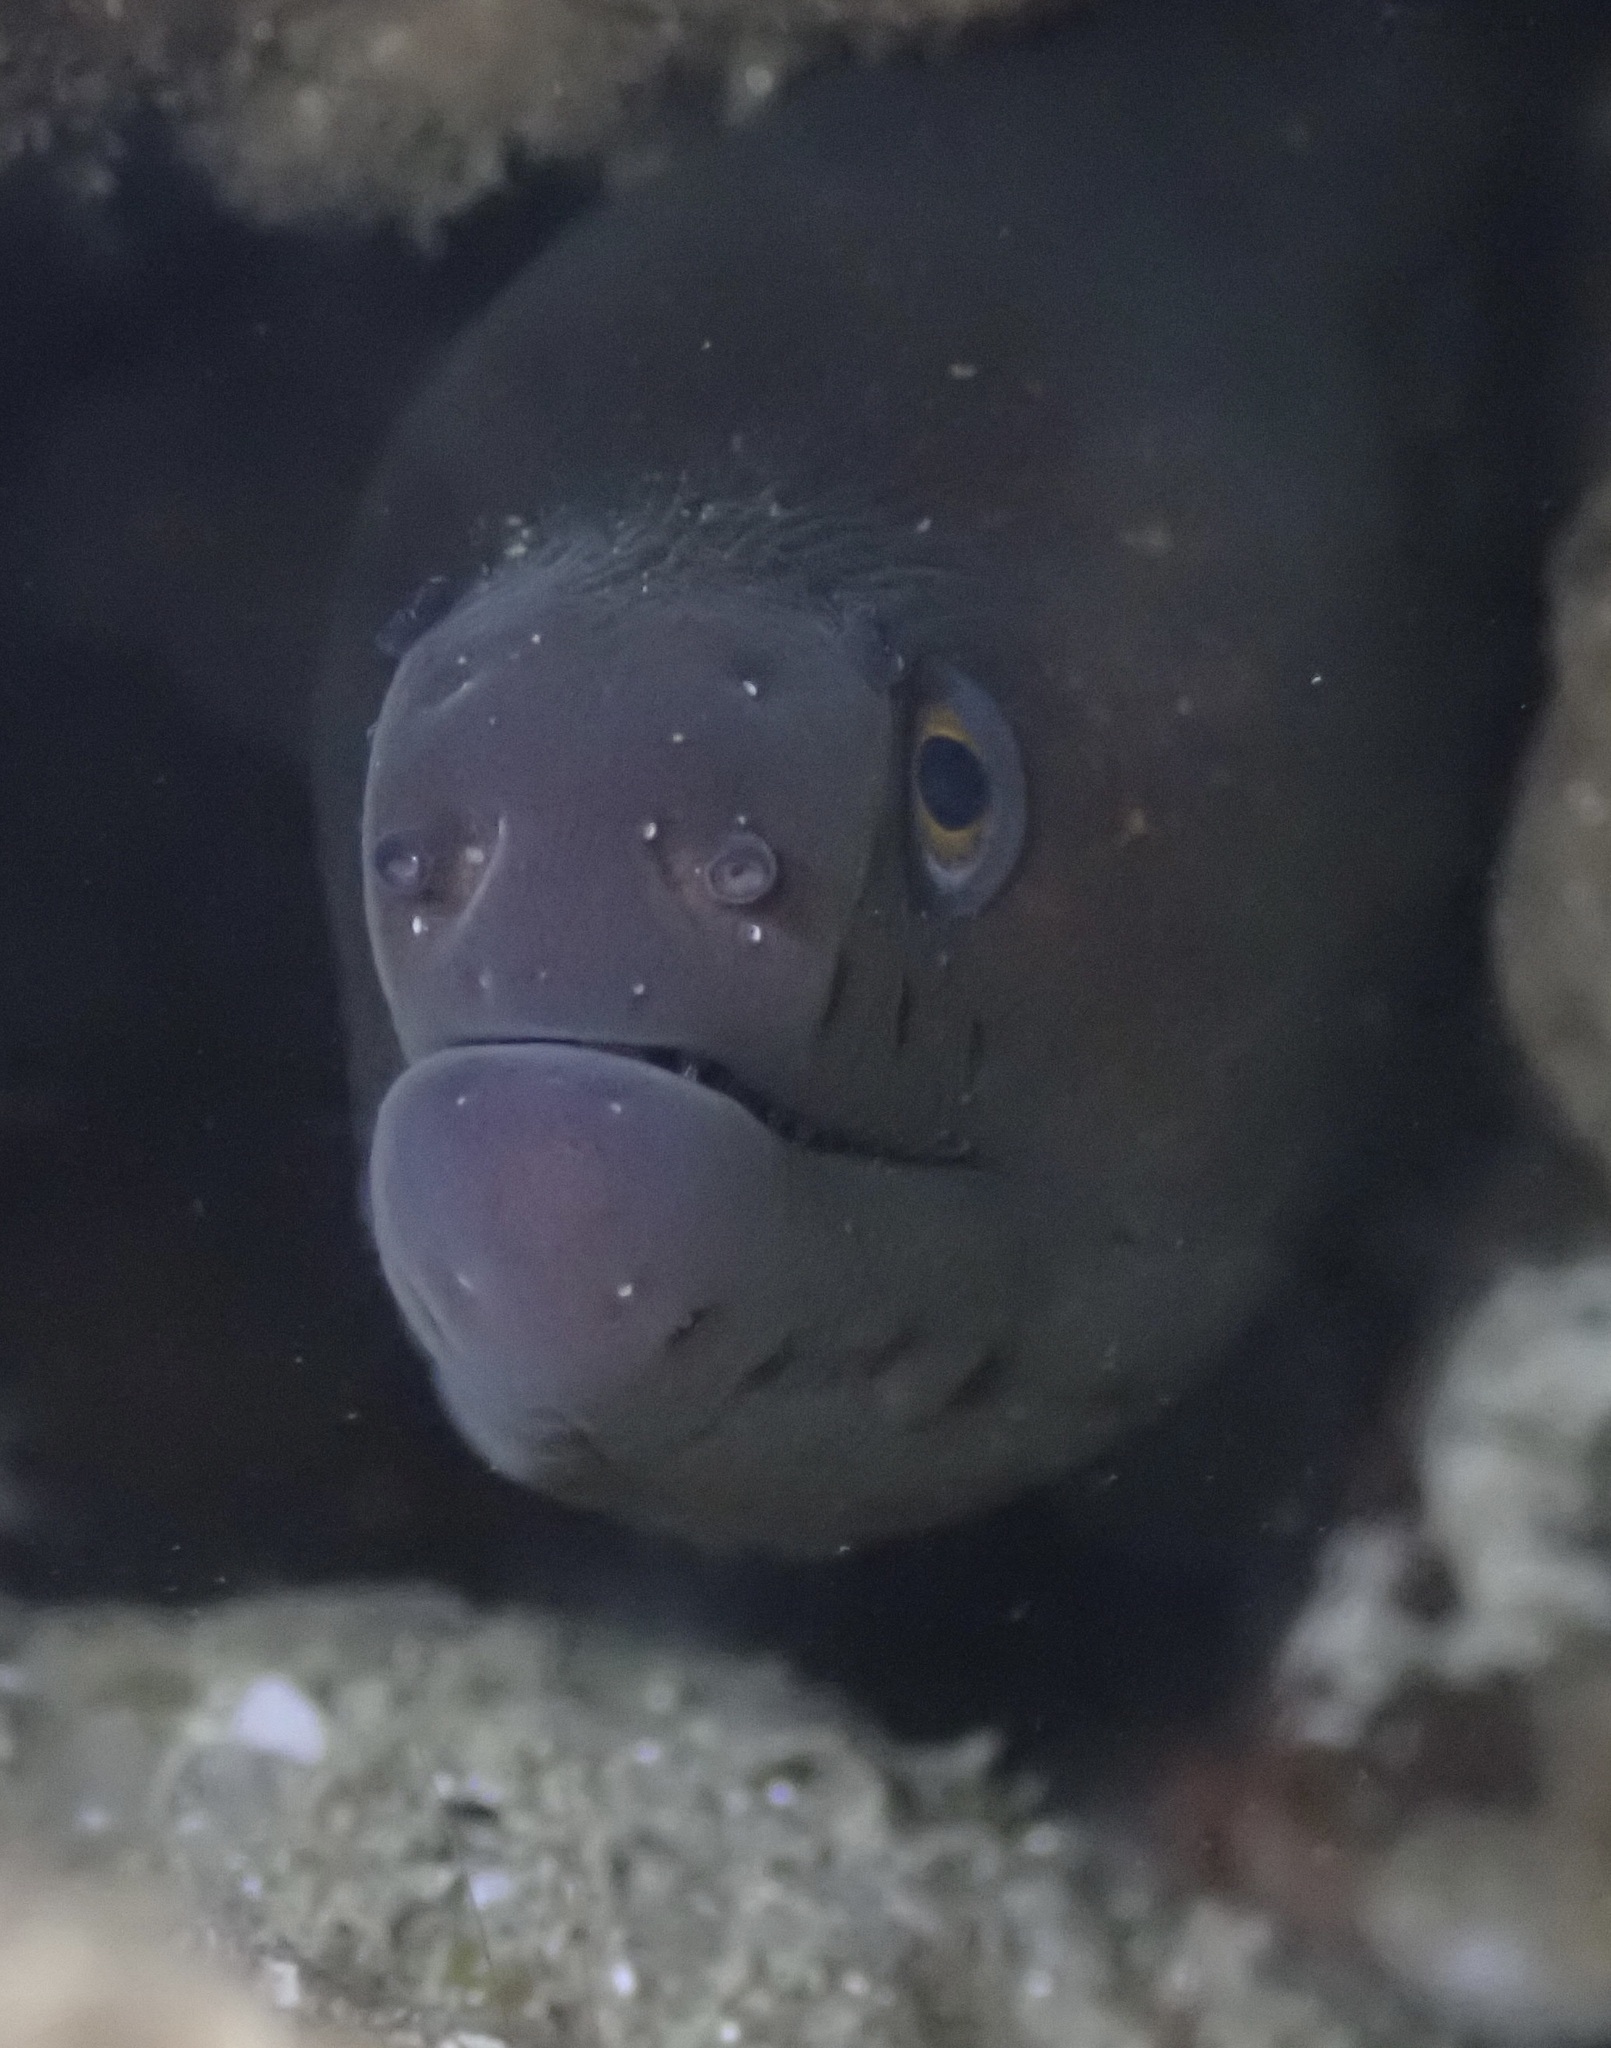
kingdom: Animalia
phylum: Chordata
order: Anguilliformes
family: Muraenidae
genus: Gymnothorax
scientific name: Gymnothorax mordax
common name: California moray
